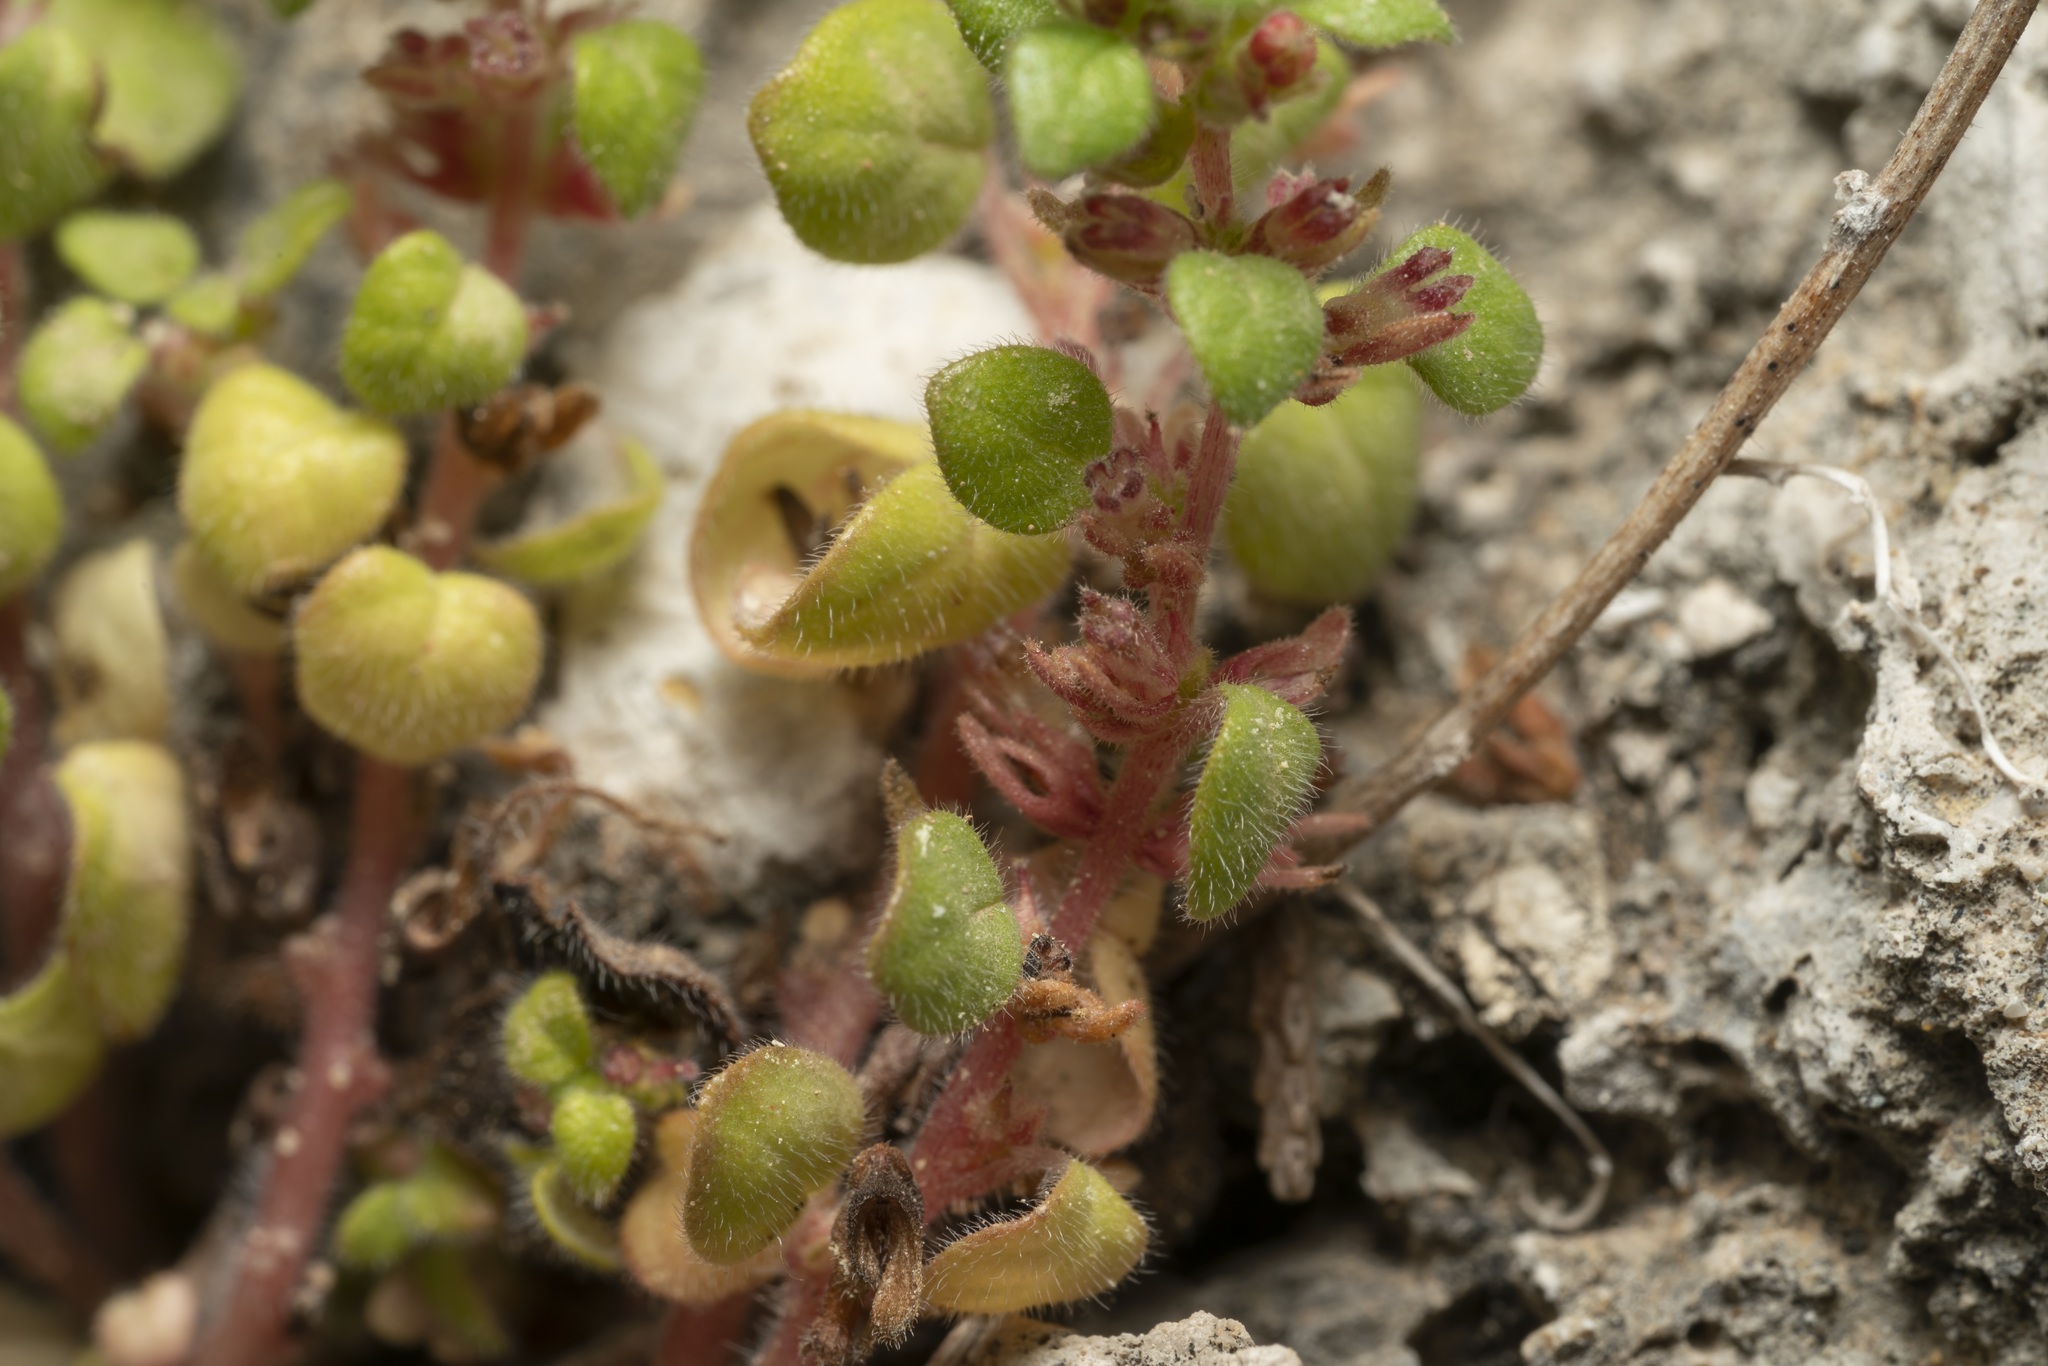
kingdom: Plantae
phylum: Tracheophyta
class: Magnoliopsida
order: Rosales
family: Urticaceae
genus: Parietaria
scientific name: Parietaria cretica
